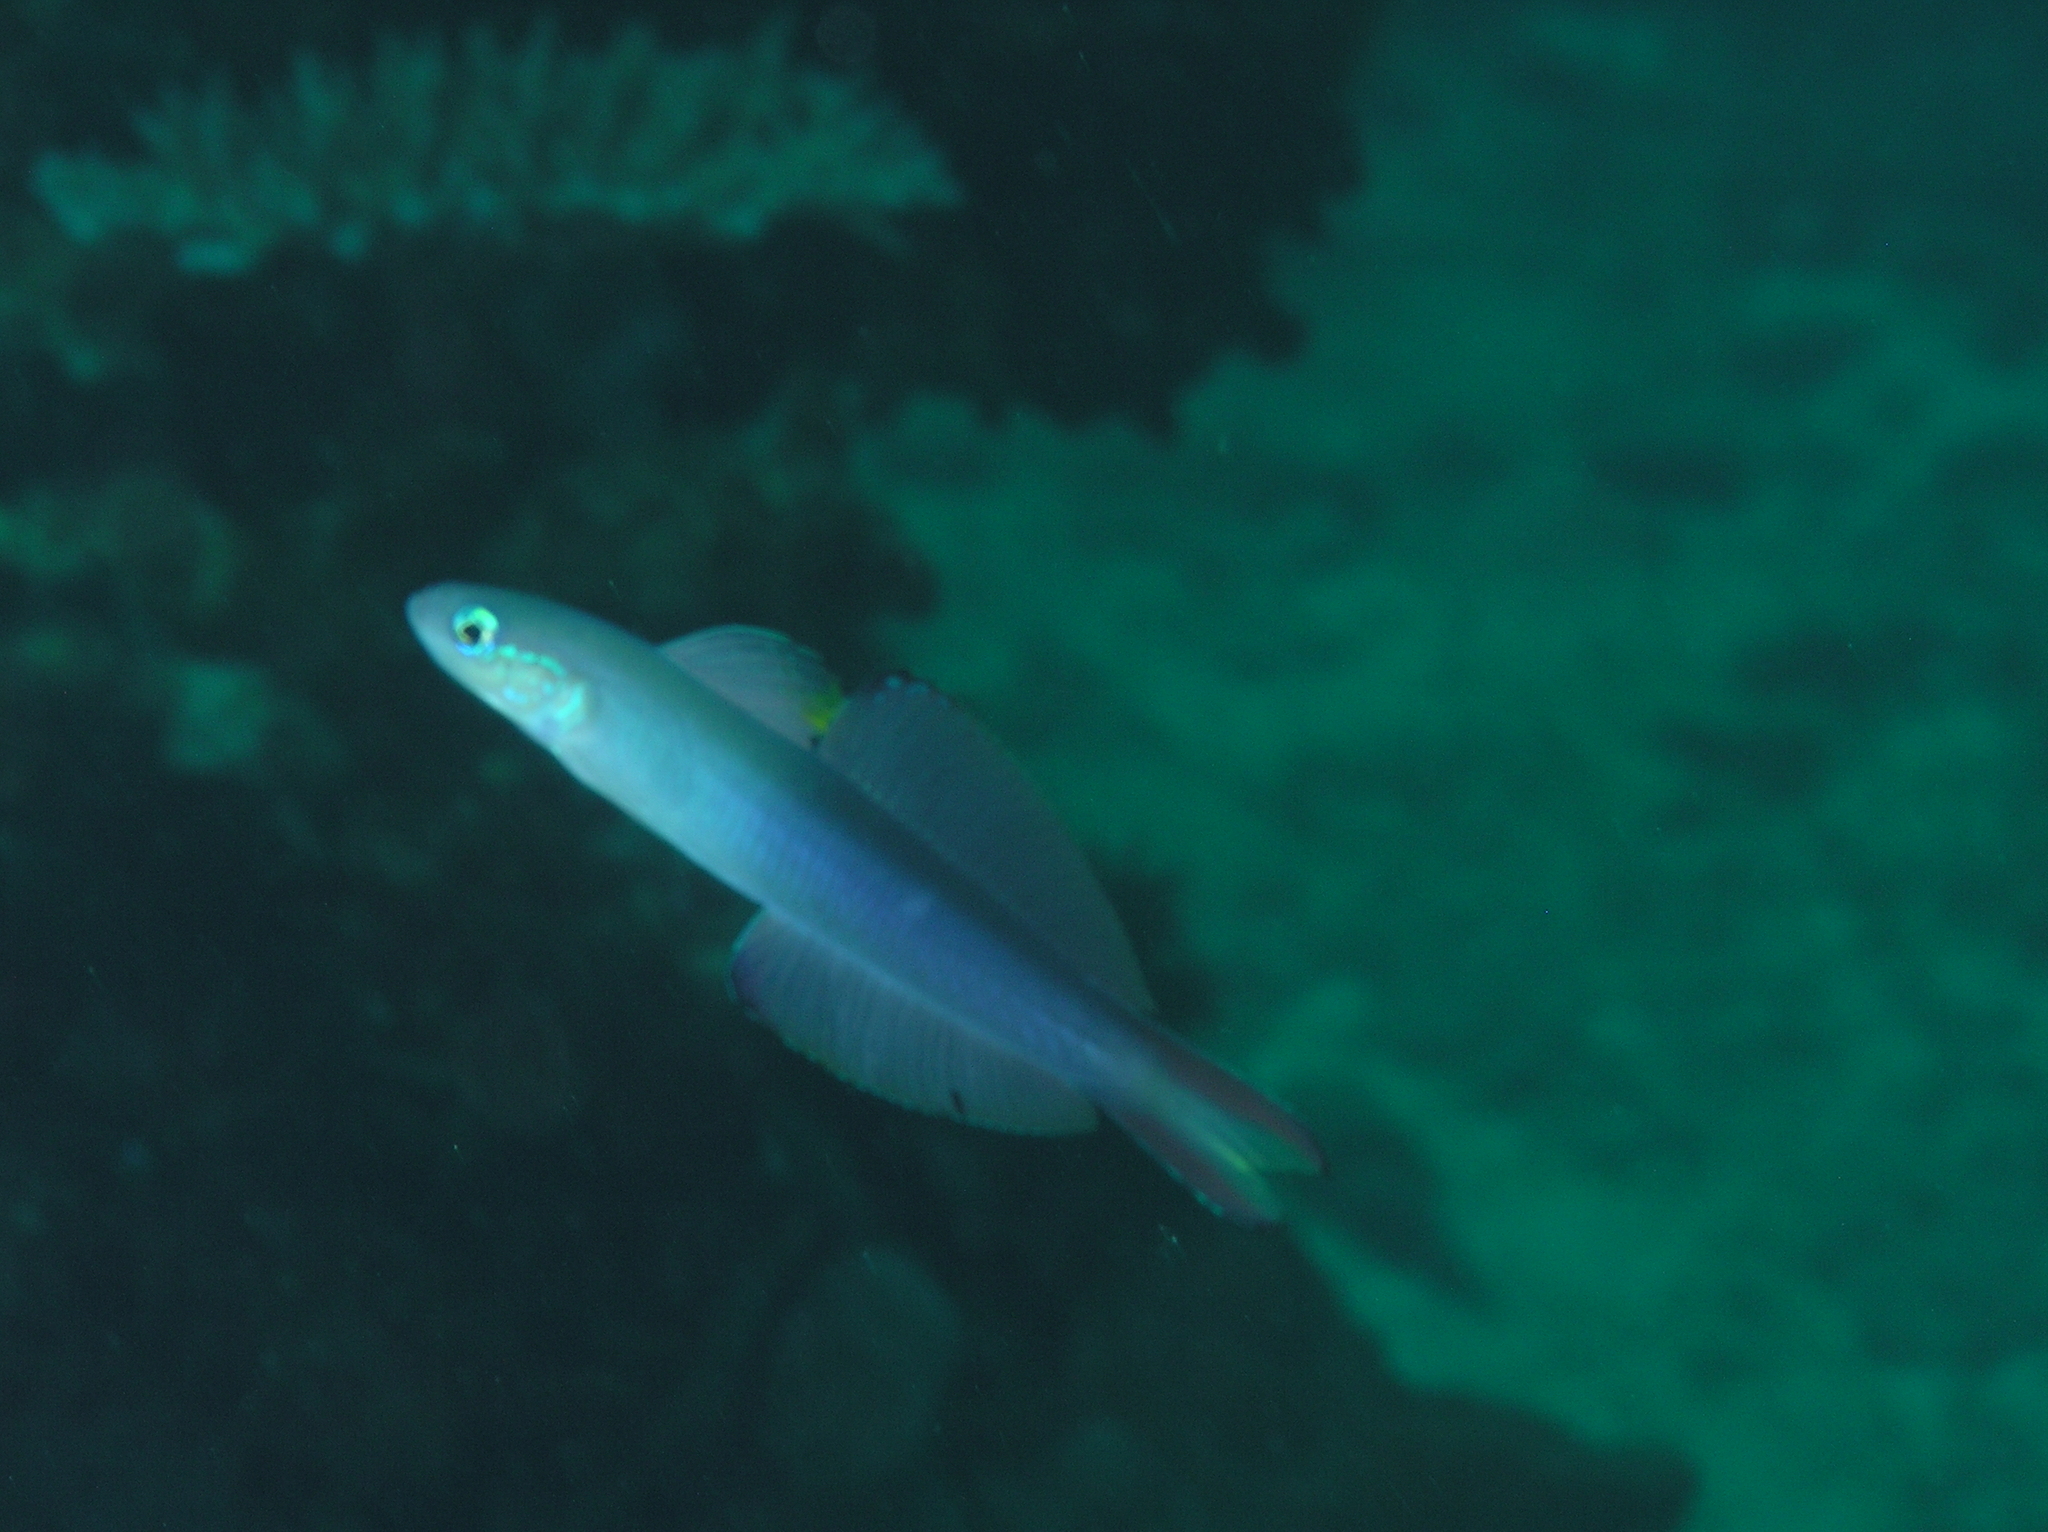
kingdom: Animalia
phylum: Chordata
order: Perciformes
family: Microdesmidae
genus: Ptereleotris
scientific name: Ptereleotris evides
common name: Blackfin dartfish
